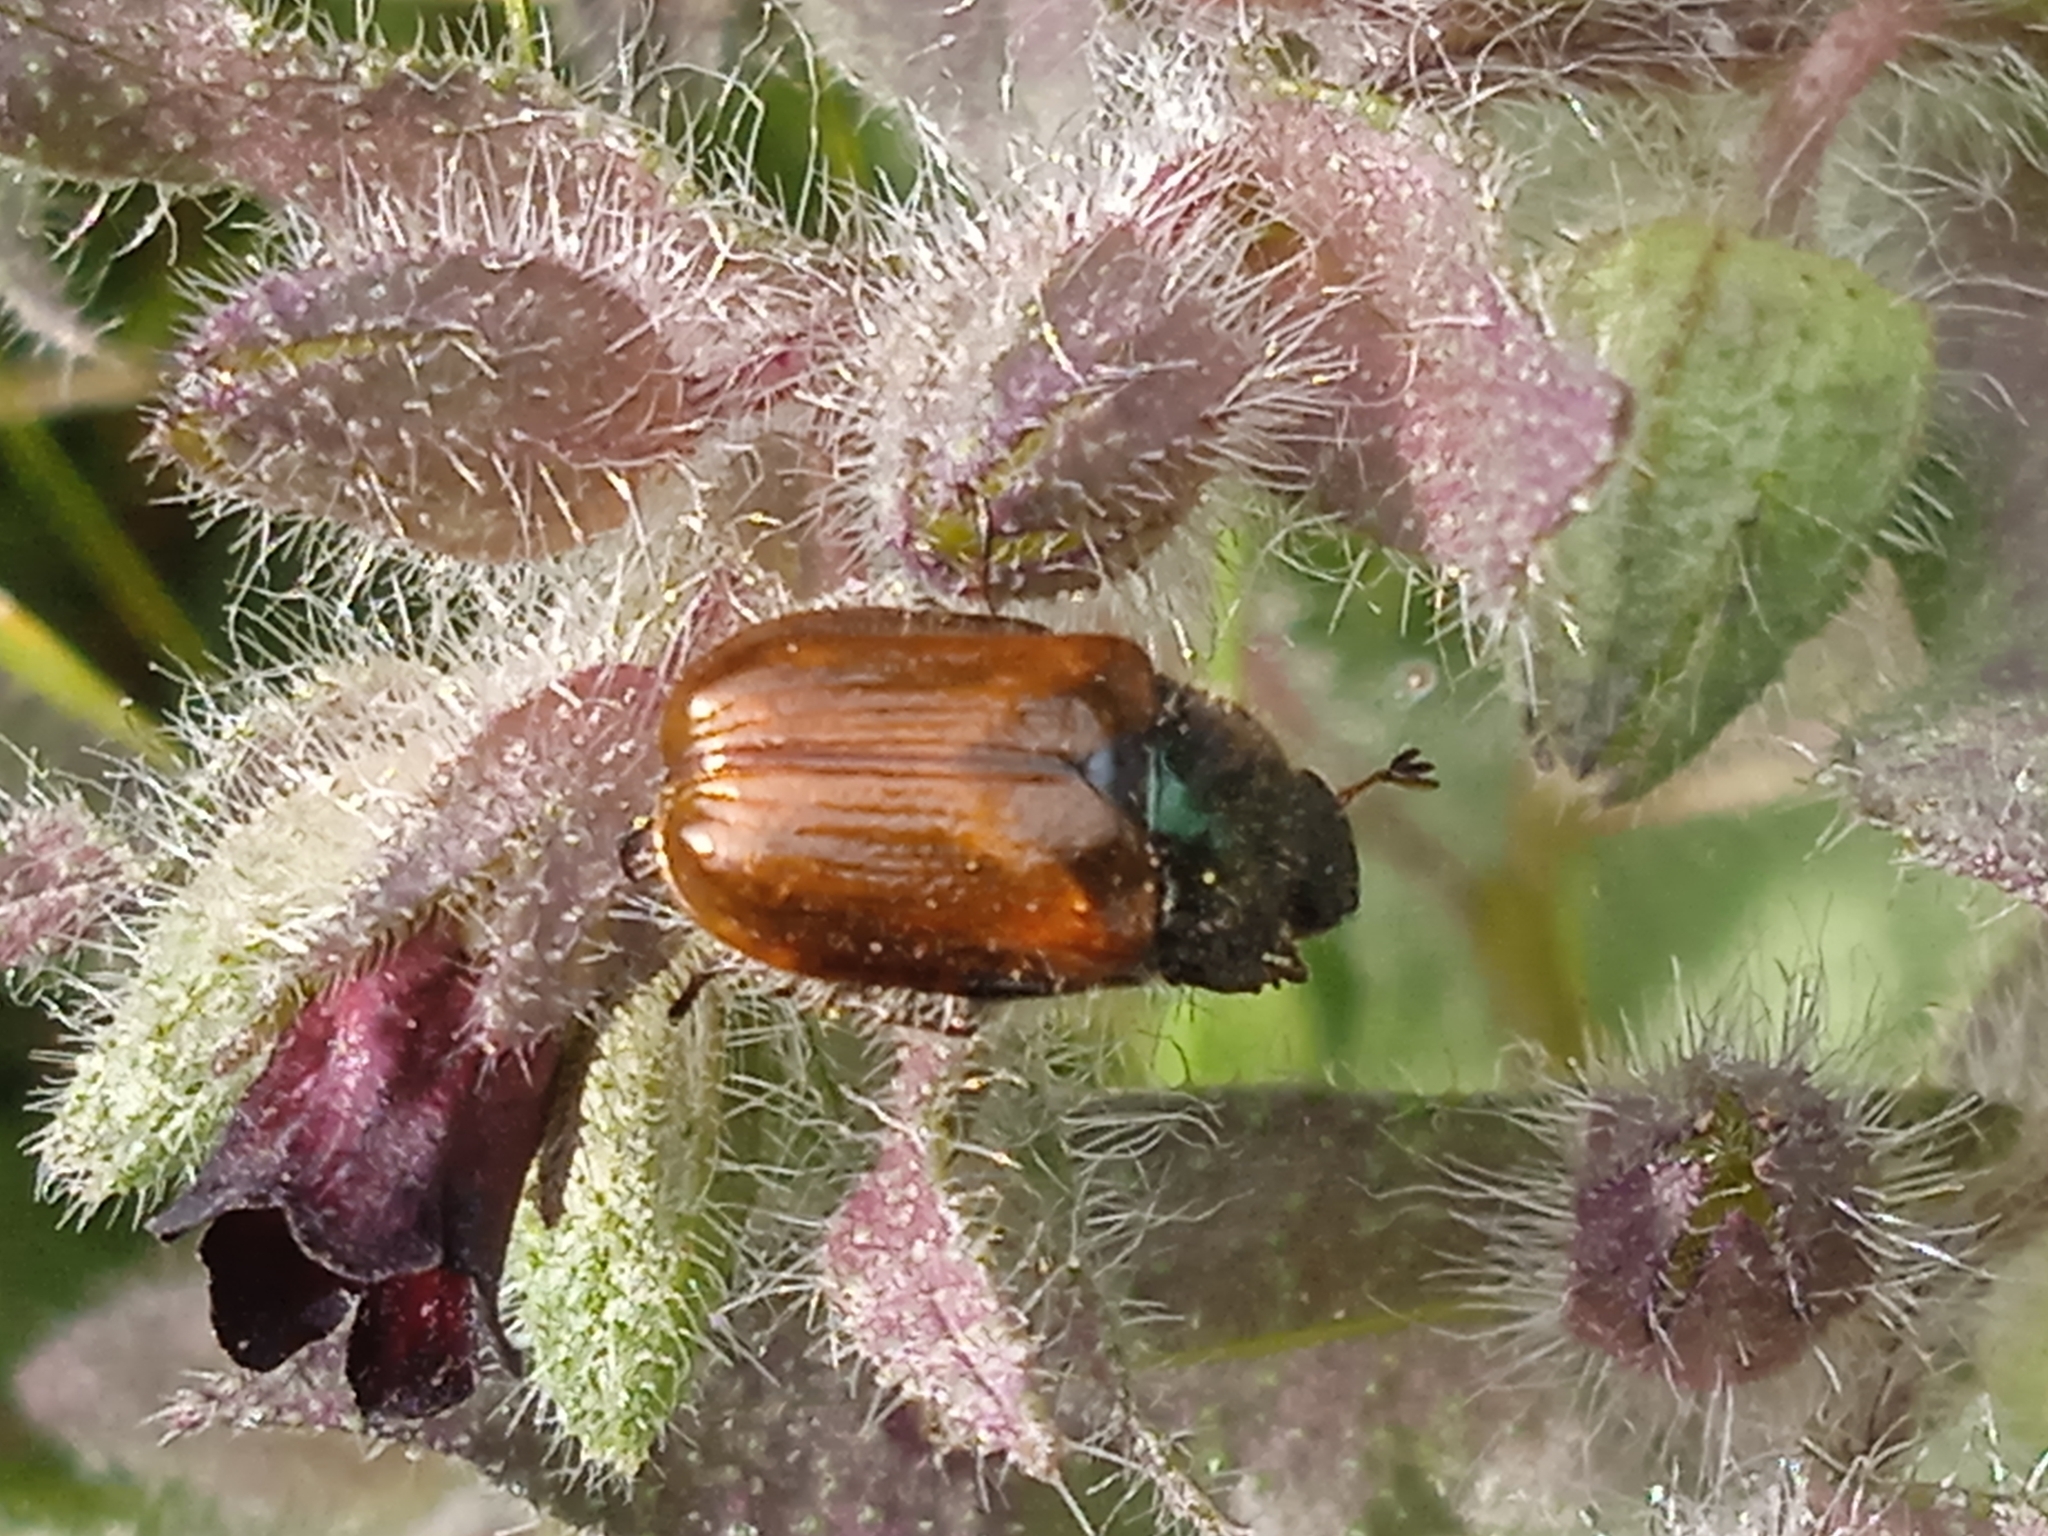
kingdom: Animalia
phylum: Arthropoda
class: Insecta
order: Coleoptera
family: Scarabaeidae
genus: Phyllopertha
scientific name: Phyllopertha horticola
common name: Garden chafer
